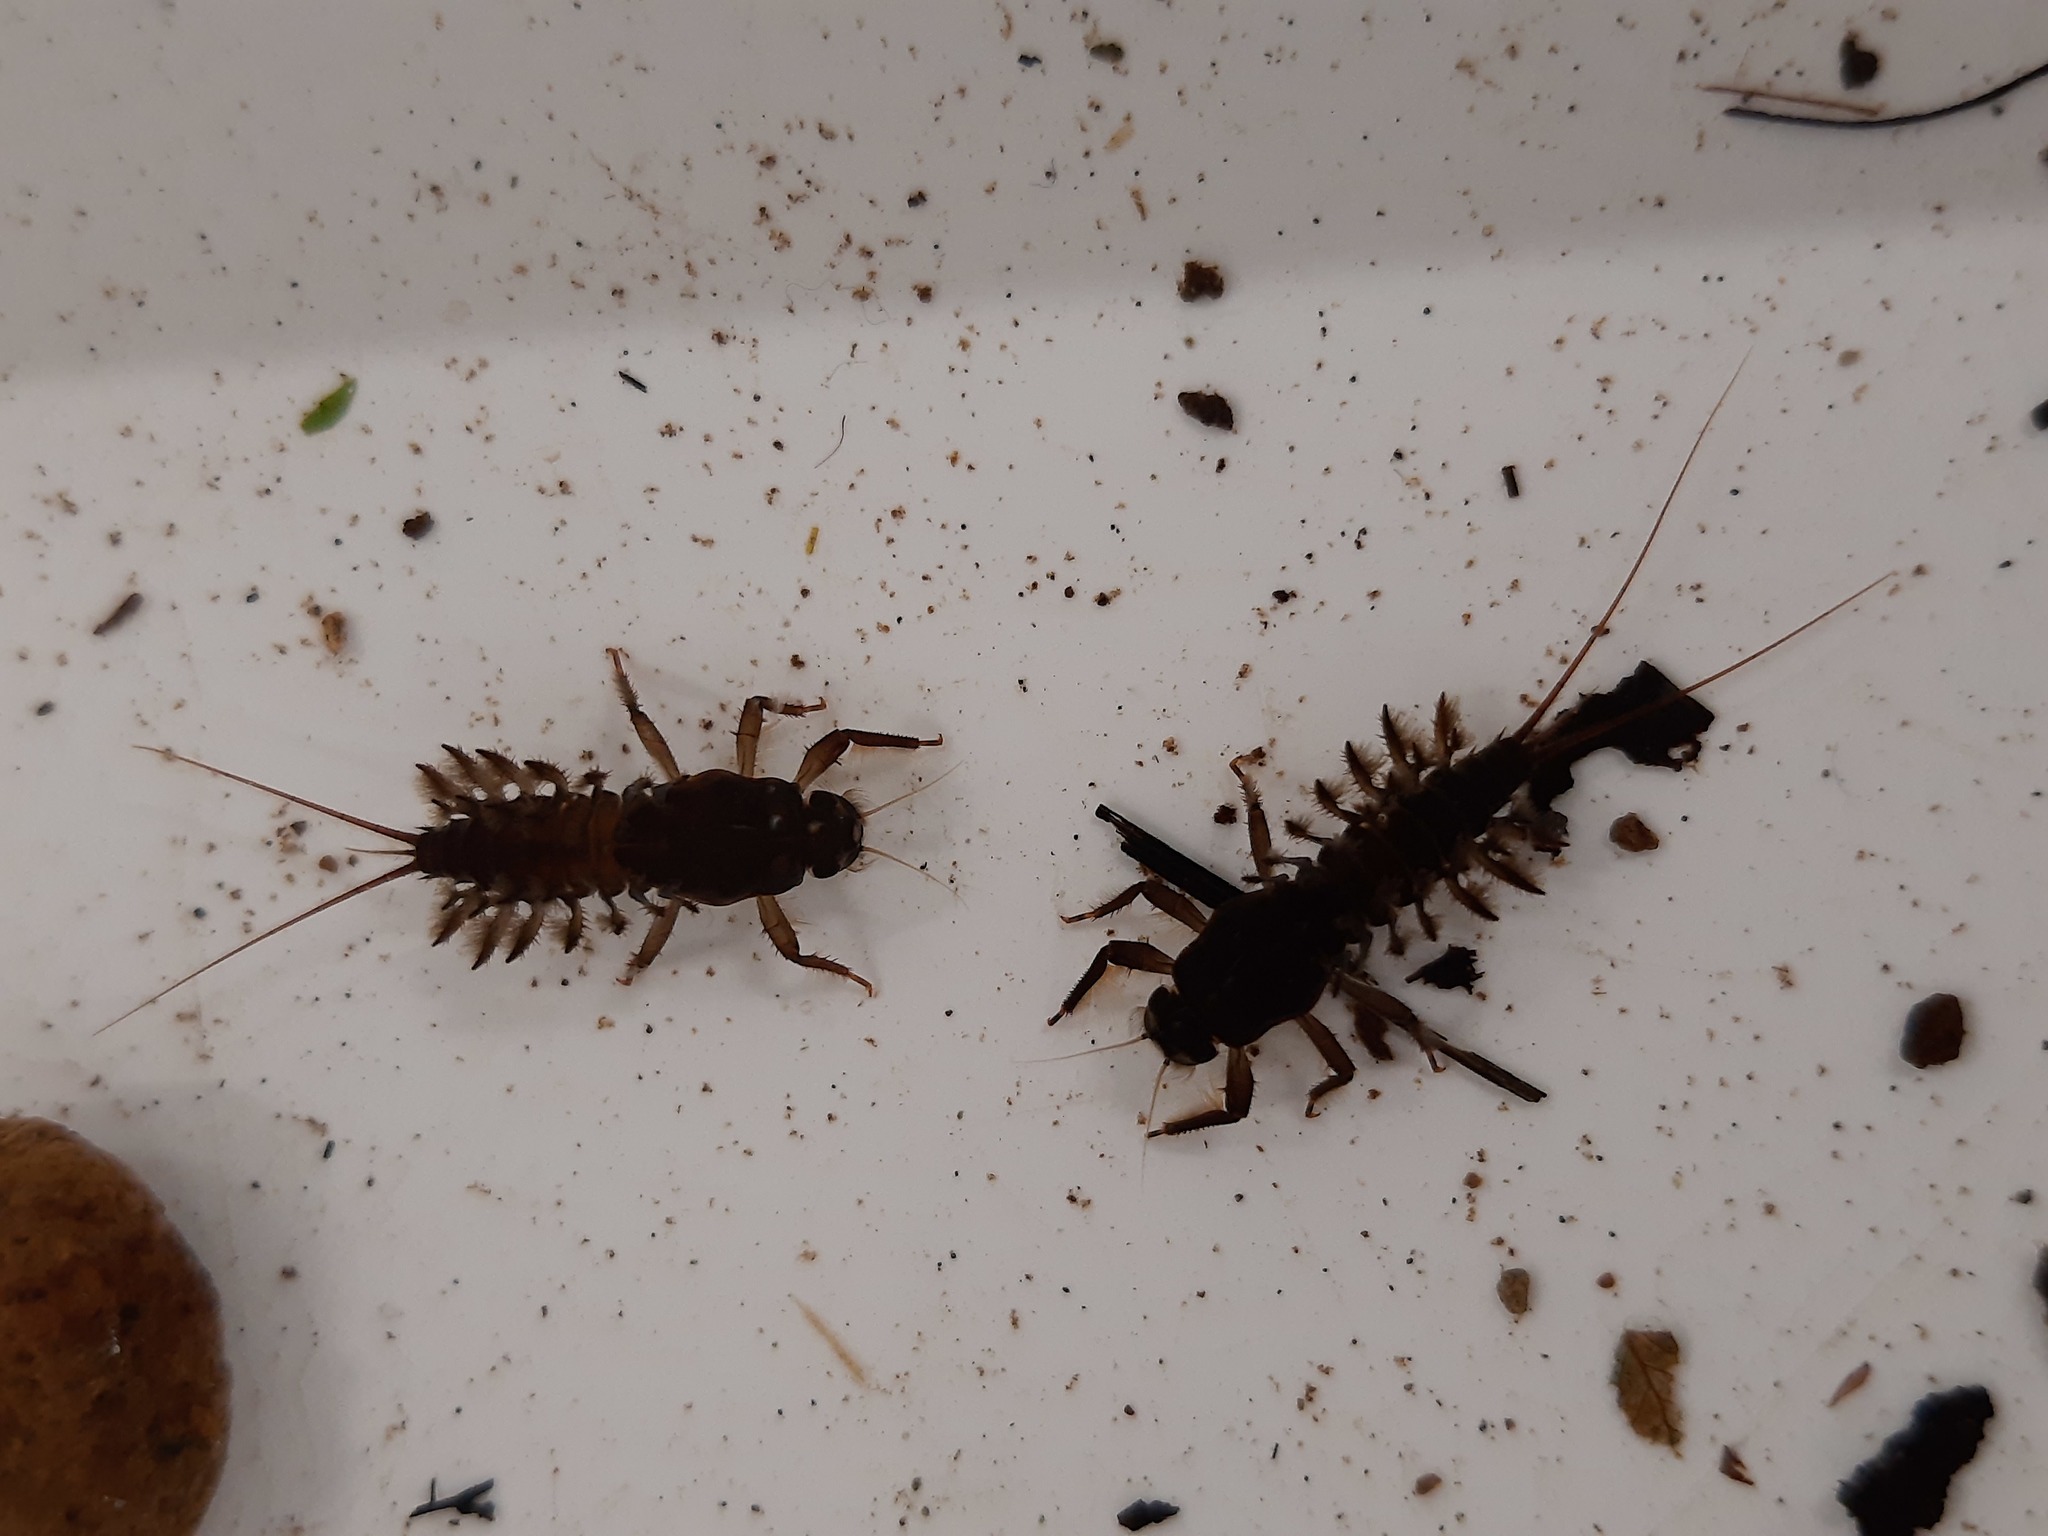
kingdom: Animalia
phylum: Arthropoda
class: Insecta
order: Ephemeroptera
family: Coloburiscidae
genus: Coloburiscus
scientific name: Coloburiscus humeralis
